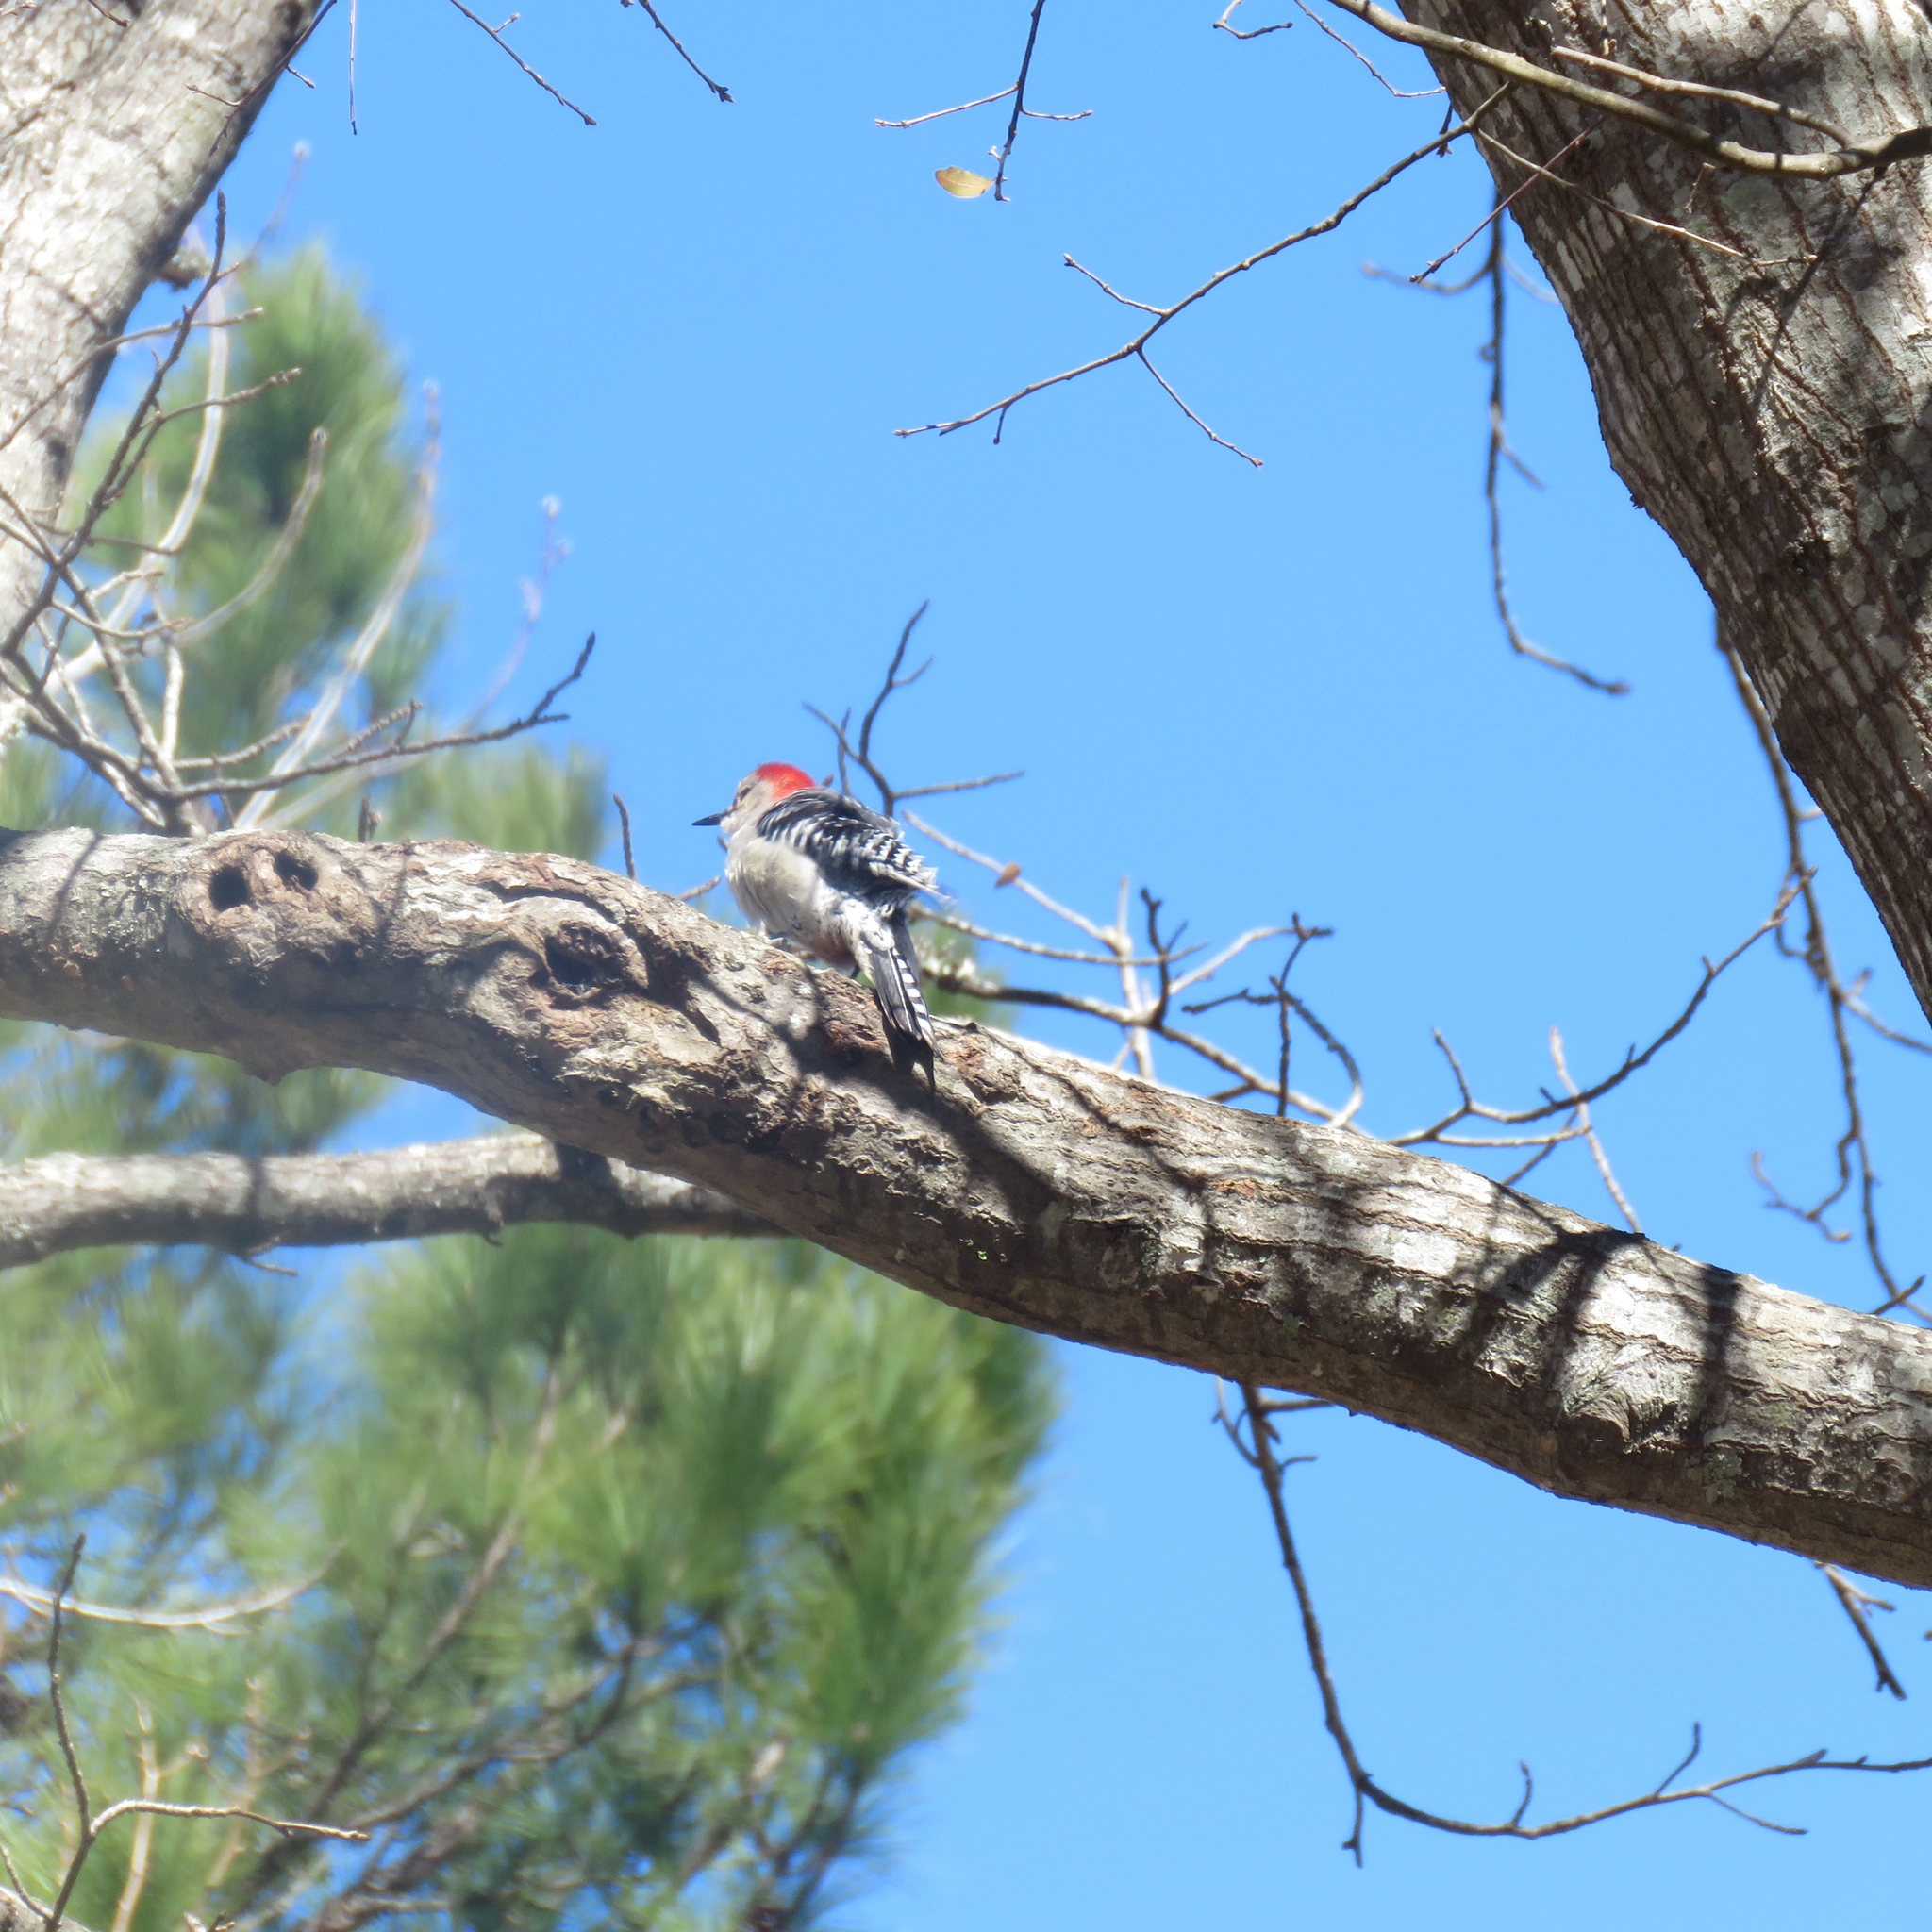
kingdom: Animalia
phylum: Chordata
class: Aves
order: Piciformes
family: Picidae
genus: Melanerpes
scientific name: Melanerpes carolinus
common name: Red-bellied woodpecker
